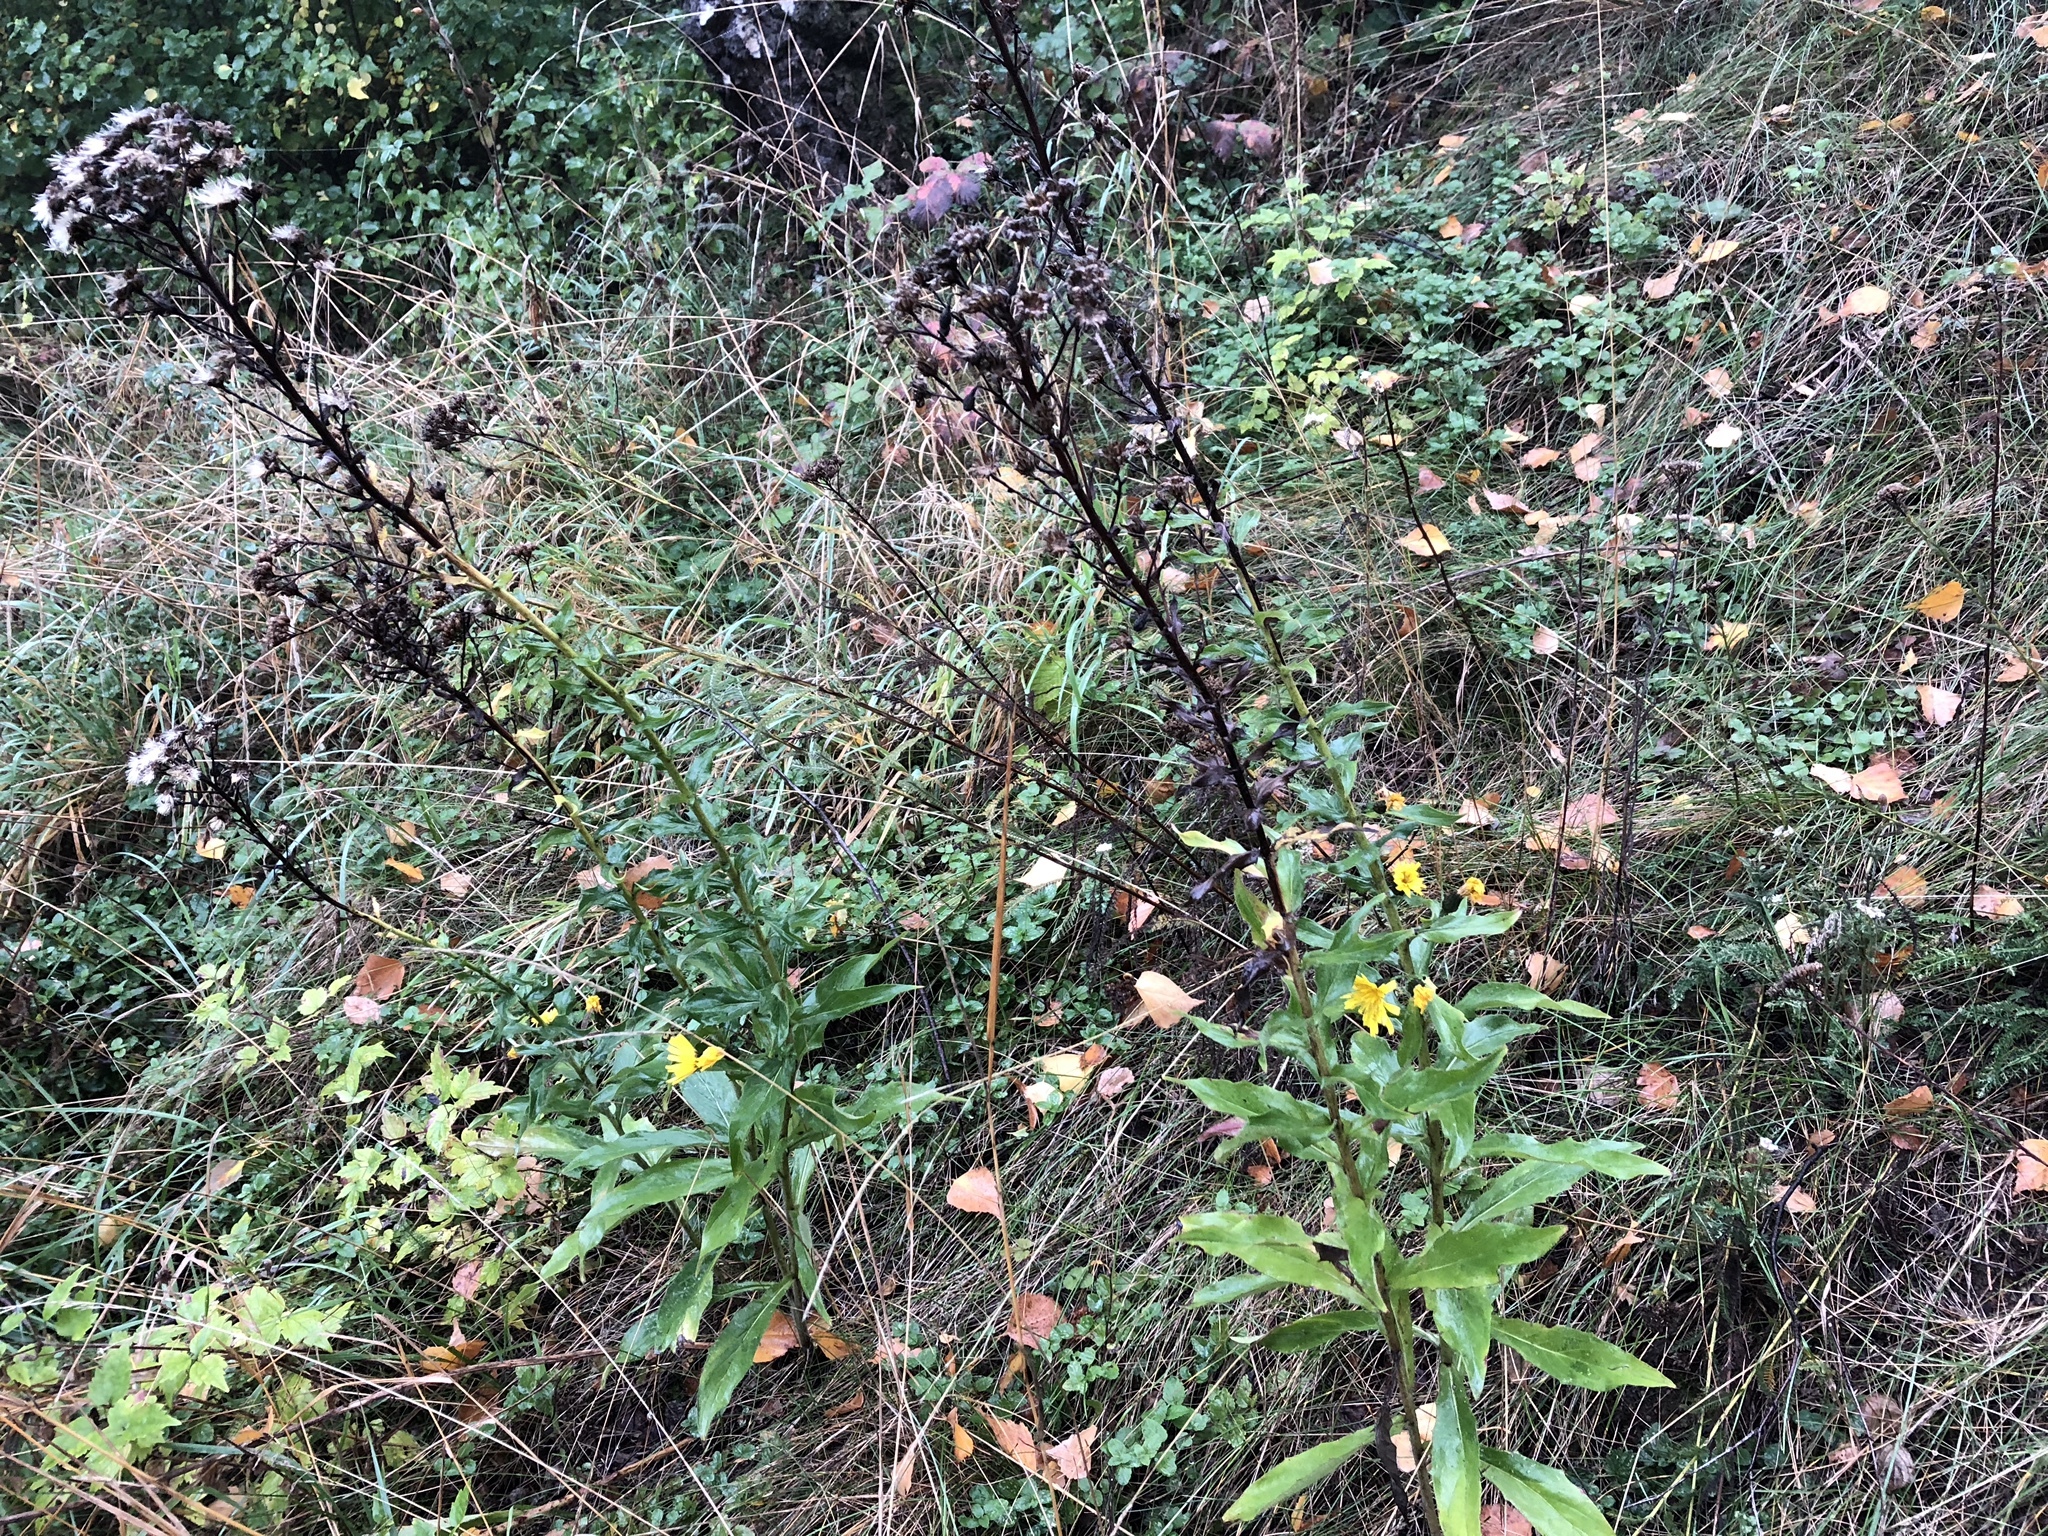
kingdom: Plantae
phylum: Tracheophyta
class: Magnoliopsida
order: Asterales
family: Asteraceae
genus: Hieracium
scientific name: Hieracium sabaudum
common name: New england hawkweed
